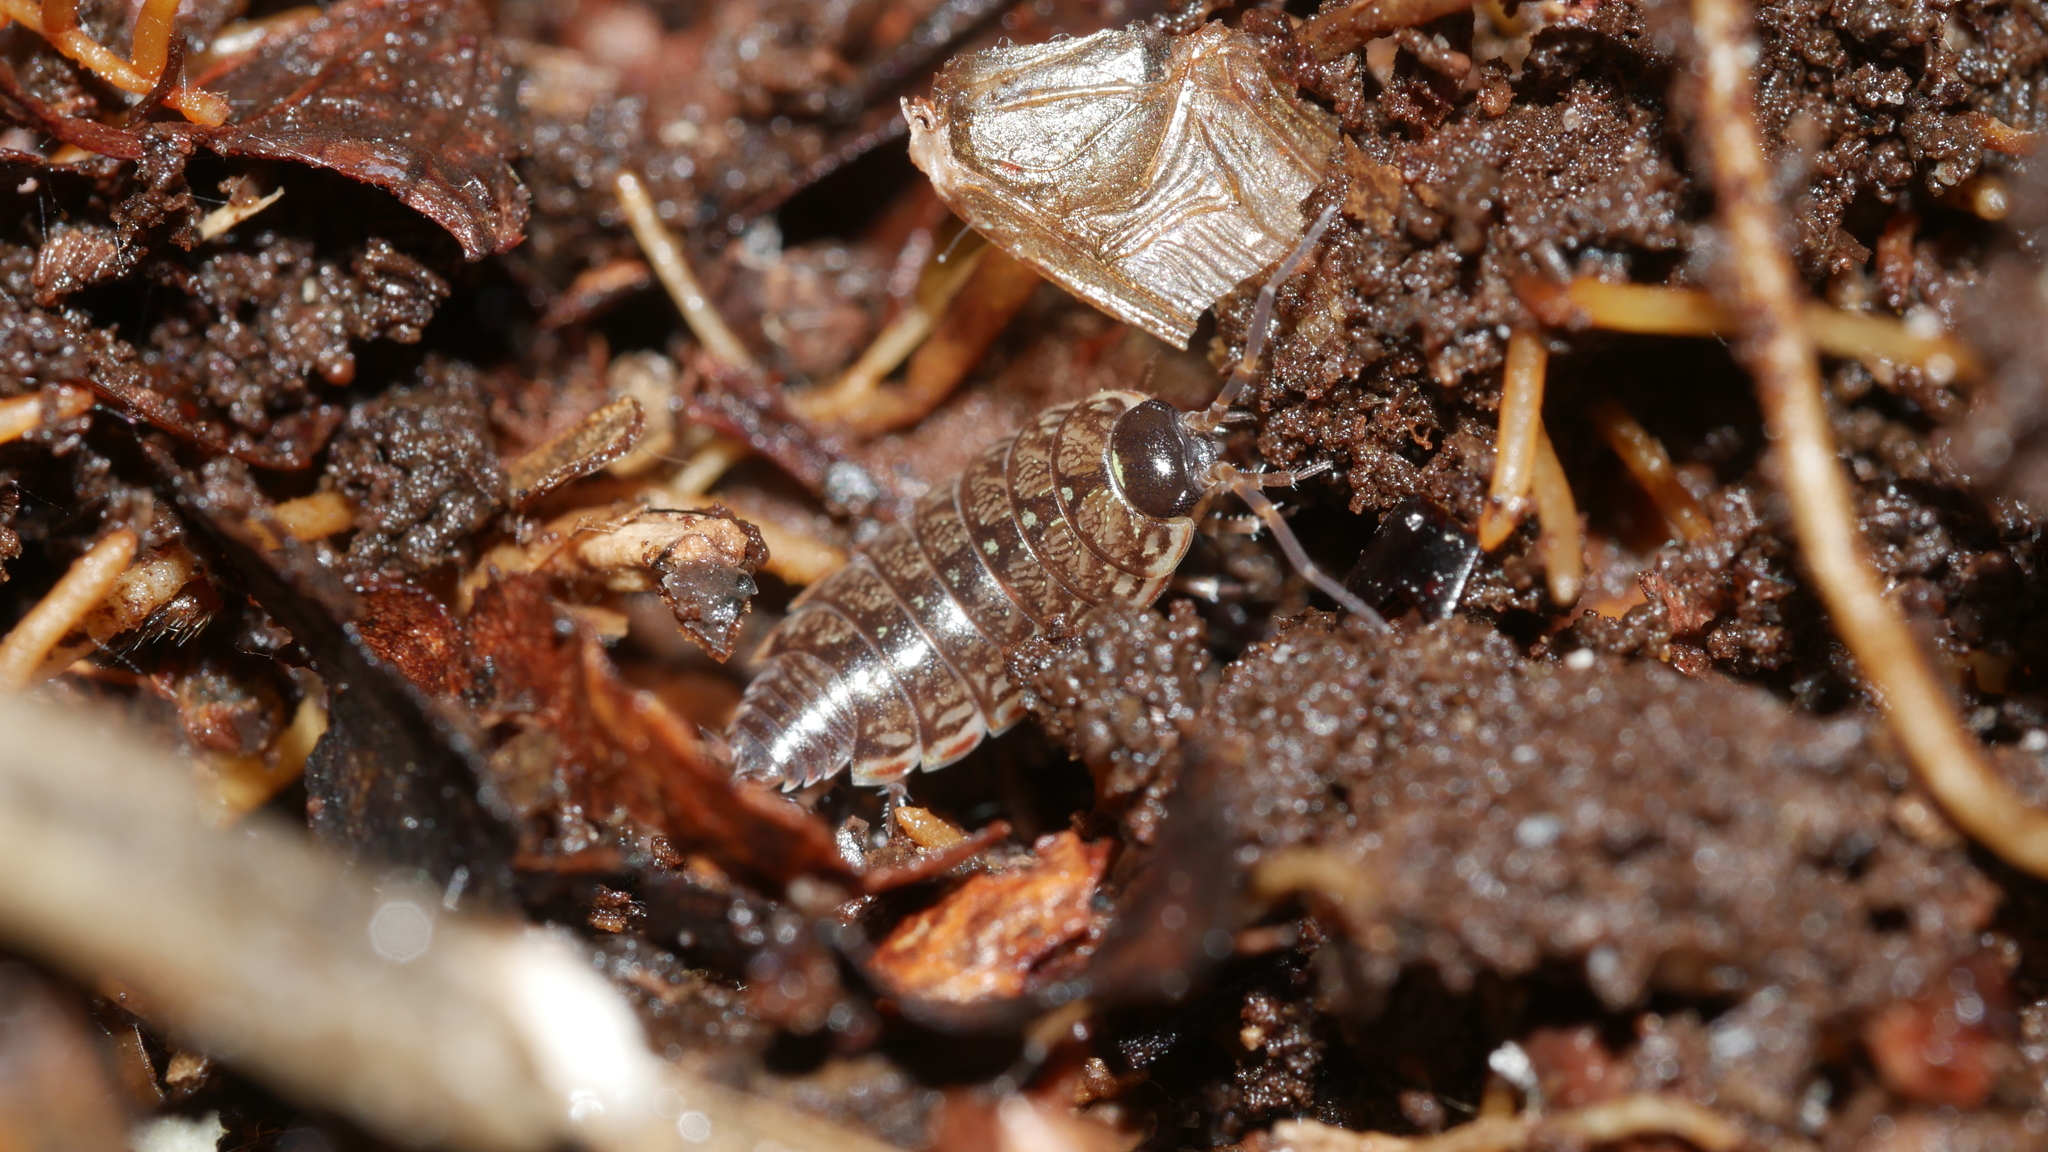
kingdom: Animalia
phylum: Arthropoda
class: Malacostraca
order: Isopoda
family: Philosciidae
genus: Philoscia
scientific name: Philoscia muscorum
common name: Common striped woodlouse
